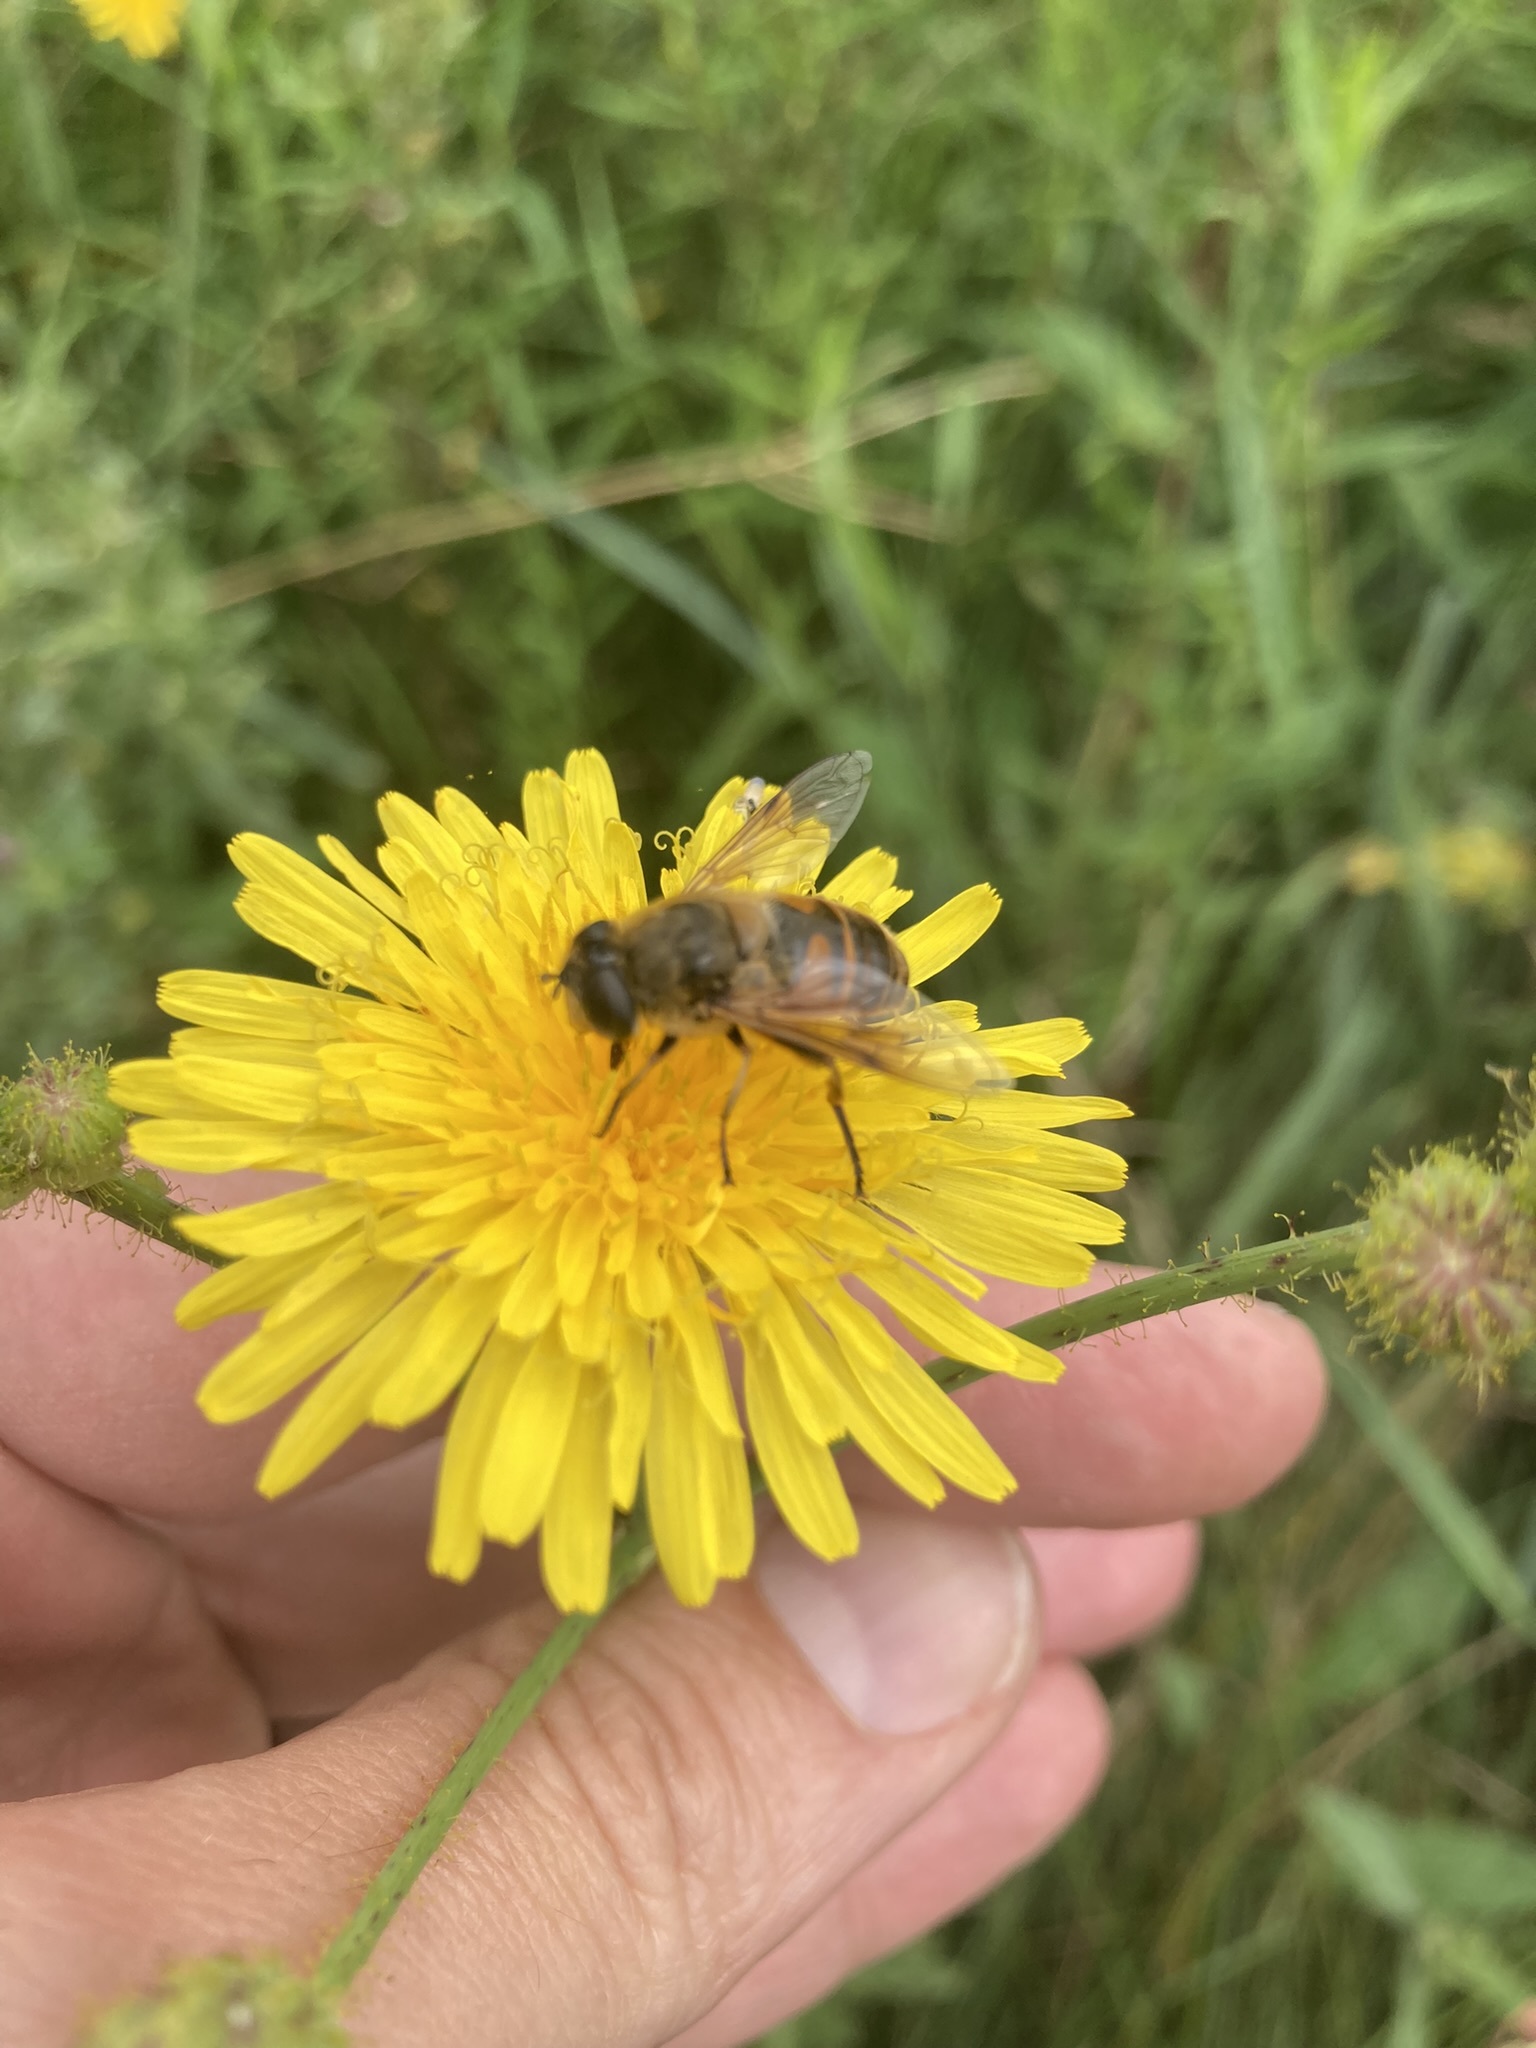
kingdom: Animalia
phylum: Arthropoda
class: Insecta
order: Diptera
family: Syrphidae
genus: Eristalis
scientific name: Eristalis tenax
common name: Drone fly
